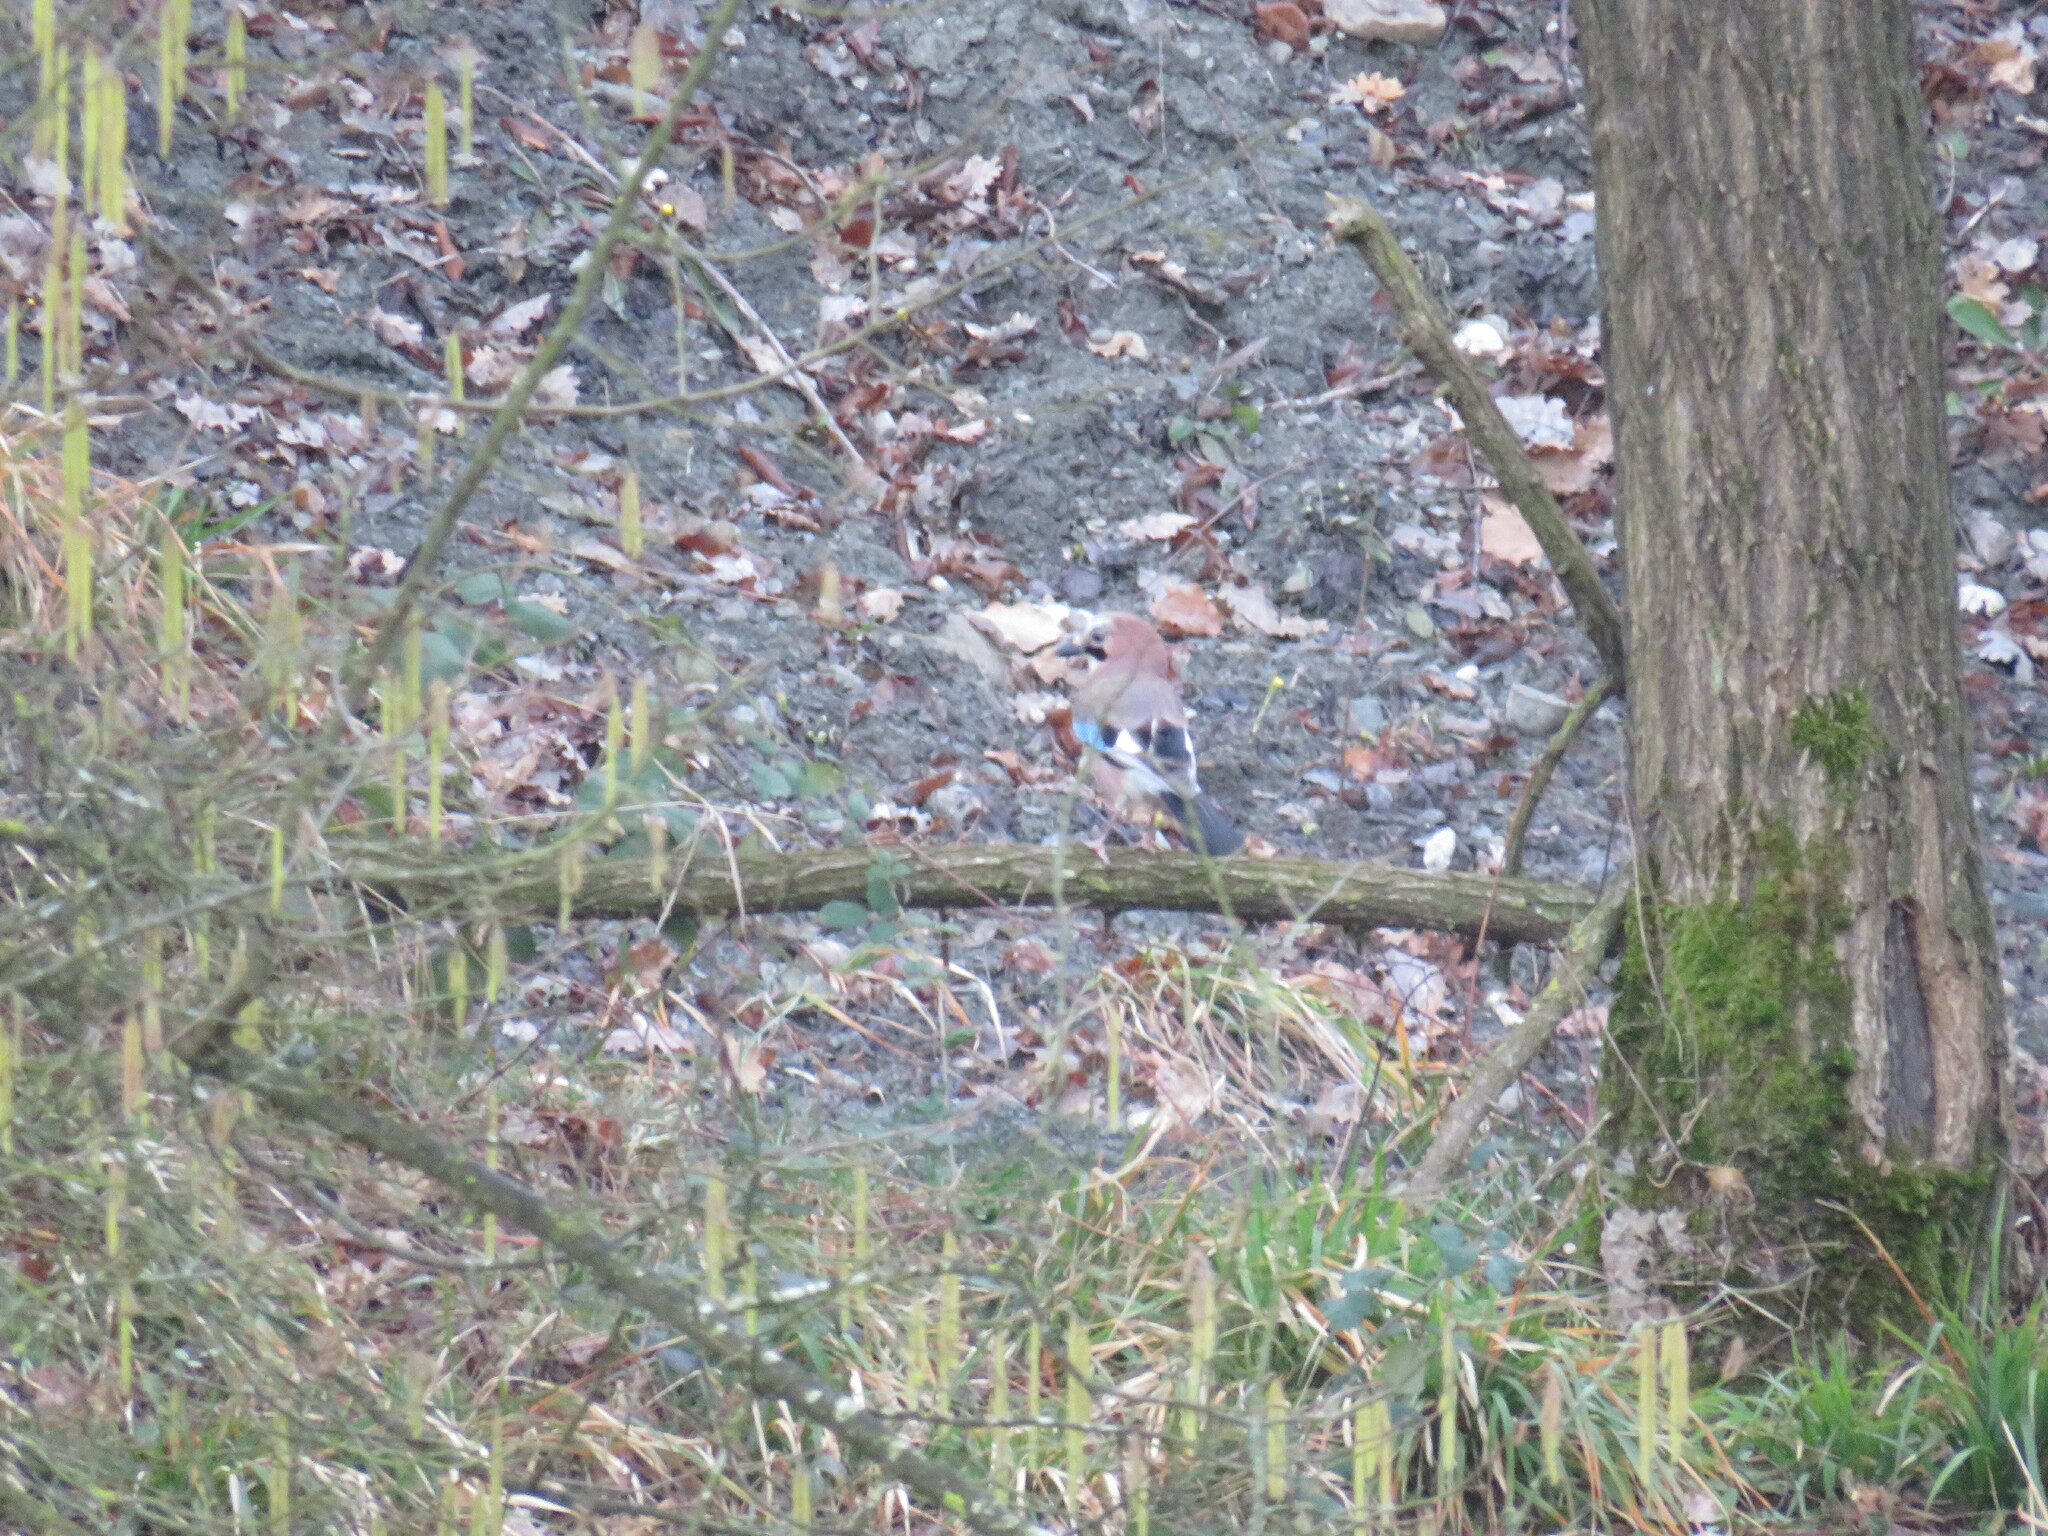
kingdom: Animalia
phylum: Chordata
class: Aves
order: Passeriformes
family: Corvidae
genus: Garrulus
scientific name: Garrulus glandarius
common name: Eurasian jay
